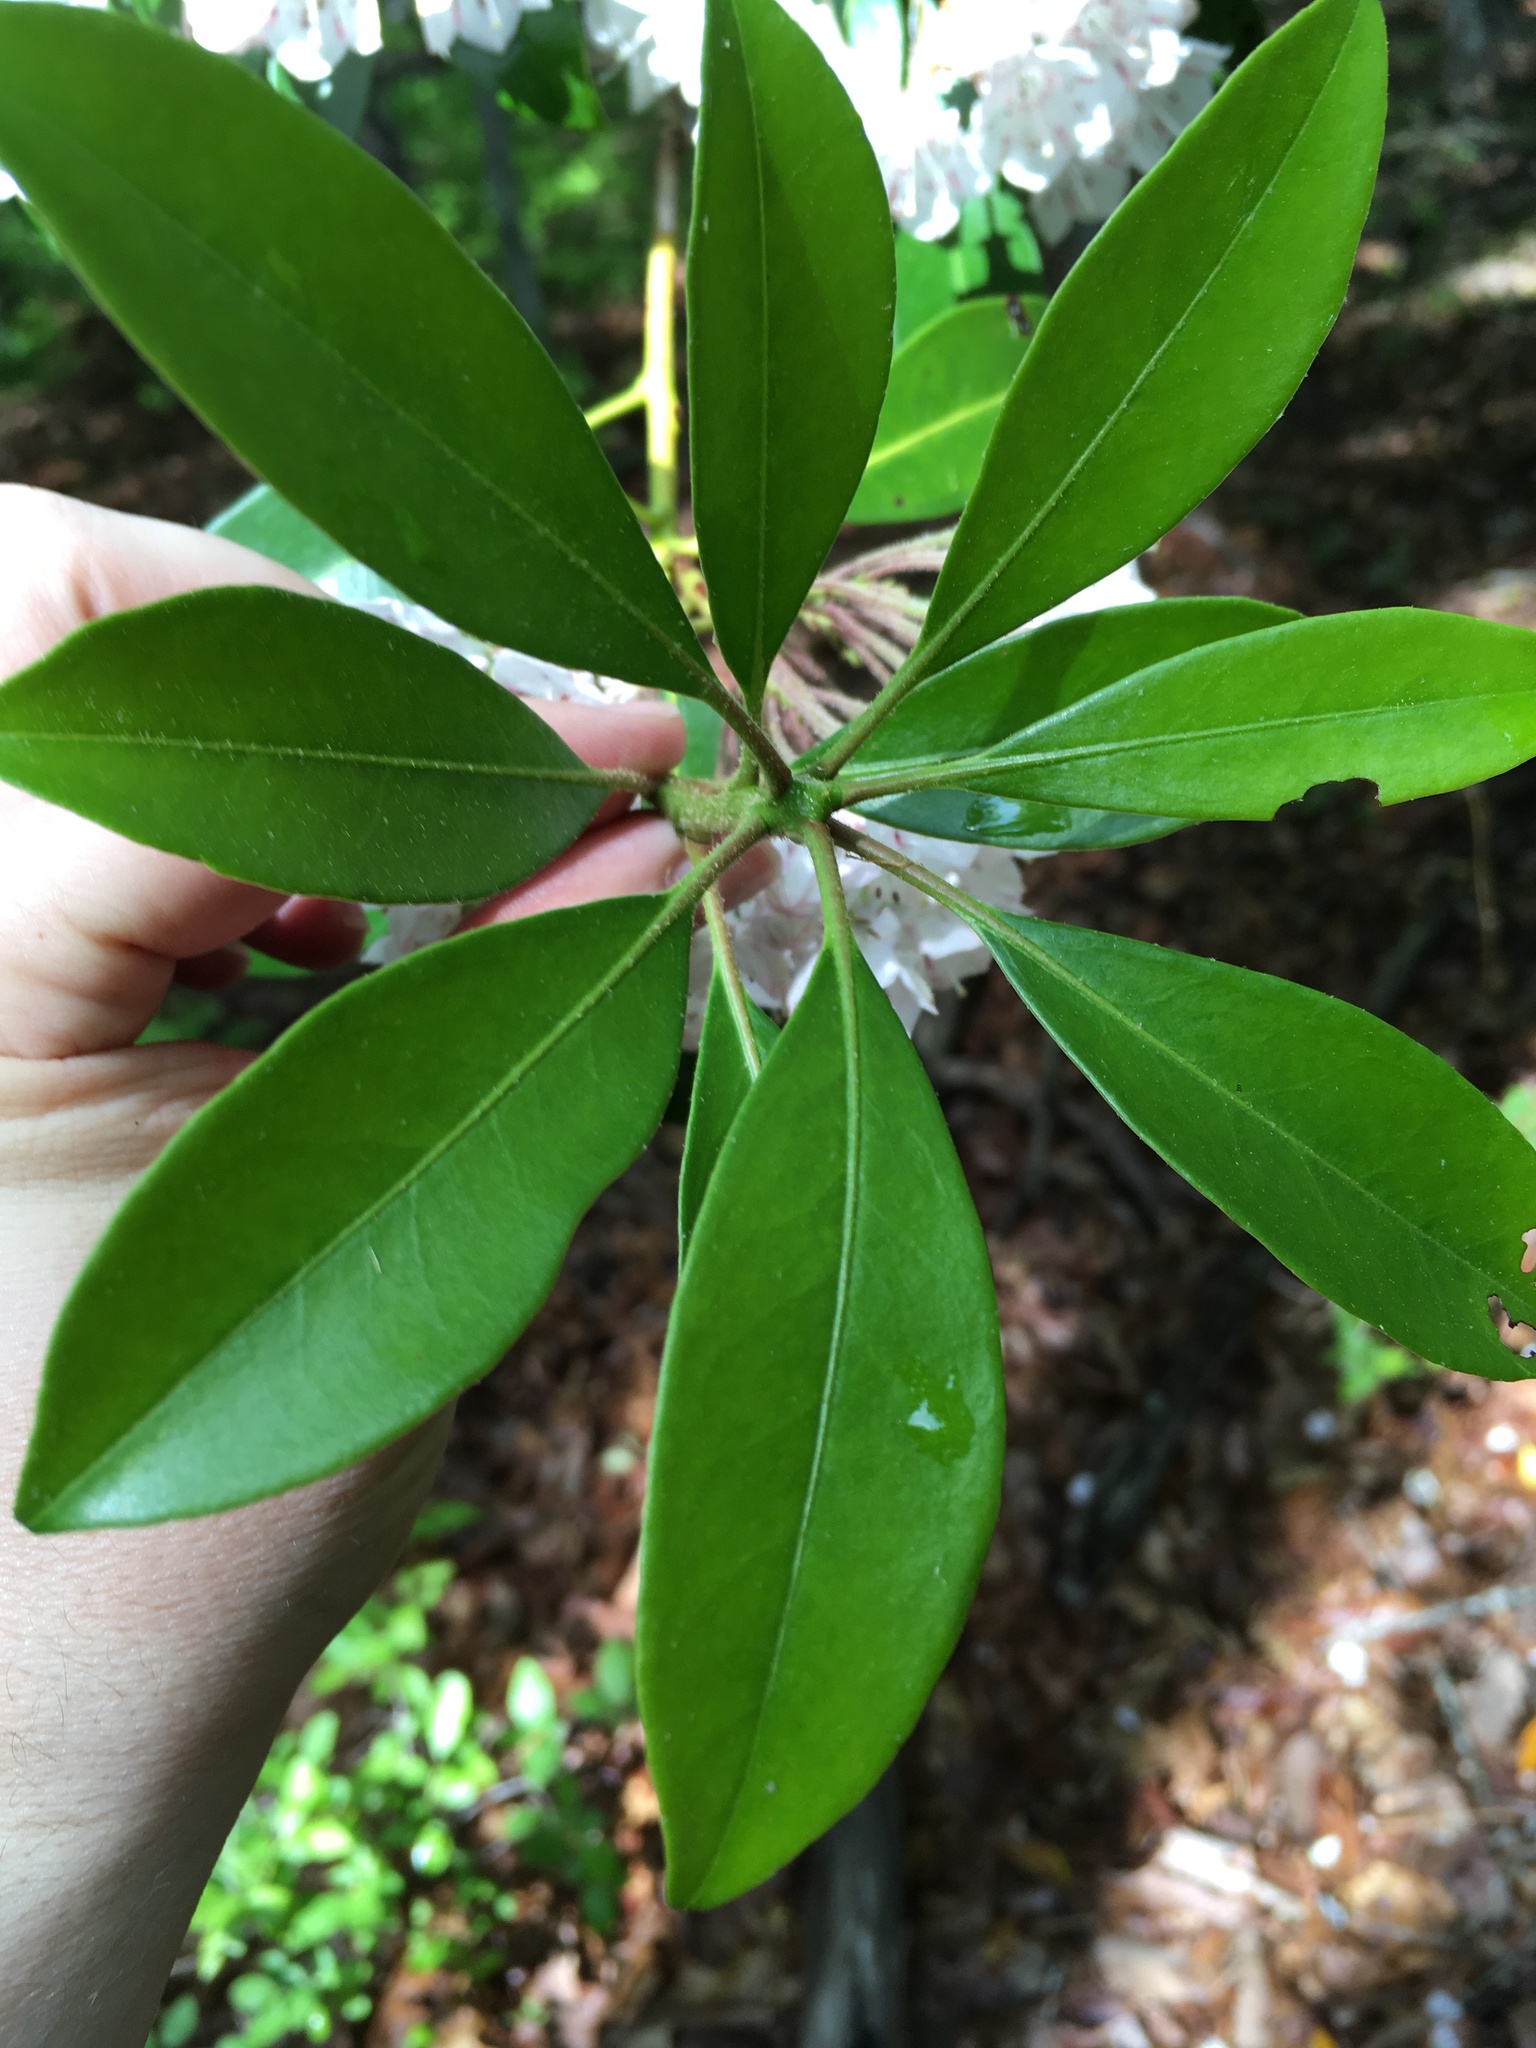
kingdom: Plantae
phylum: Tracheophyta
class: Magnoliopsida
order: Ericales
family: Ericaceae
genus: Kalmia
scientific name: Kalmia latifolia
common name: Mountain-laurel
